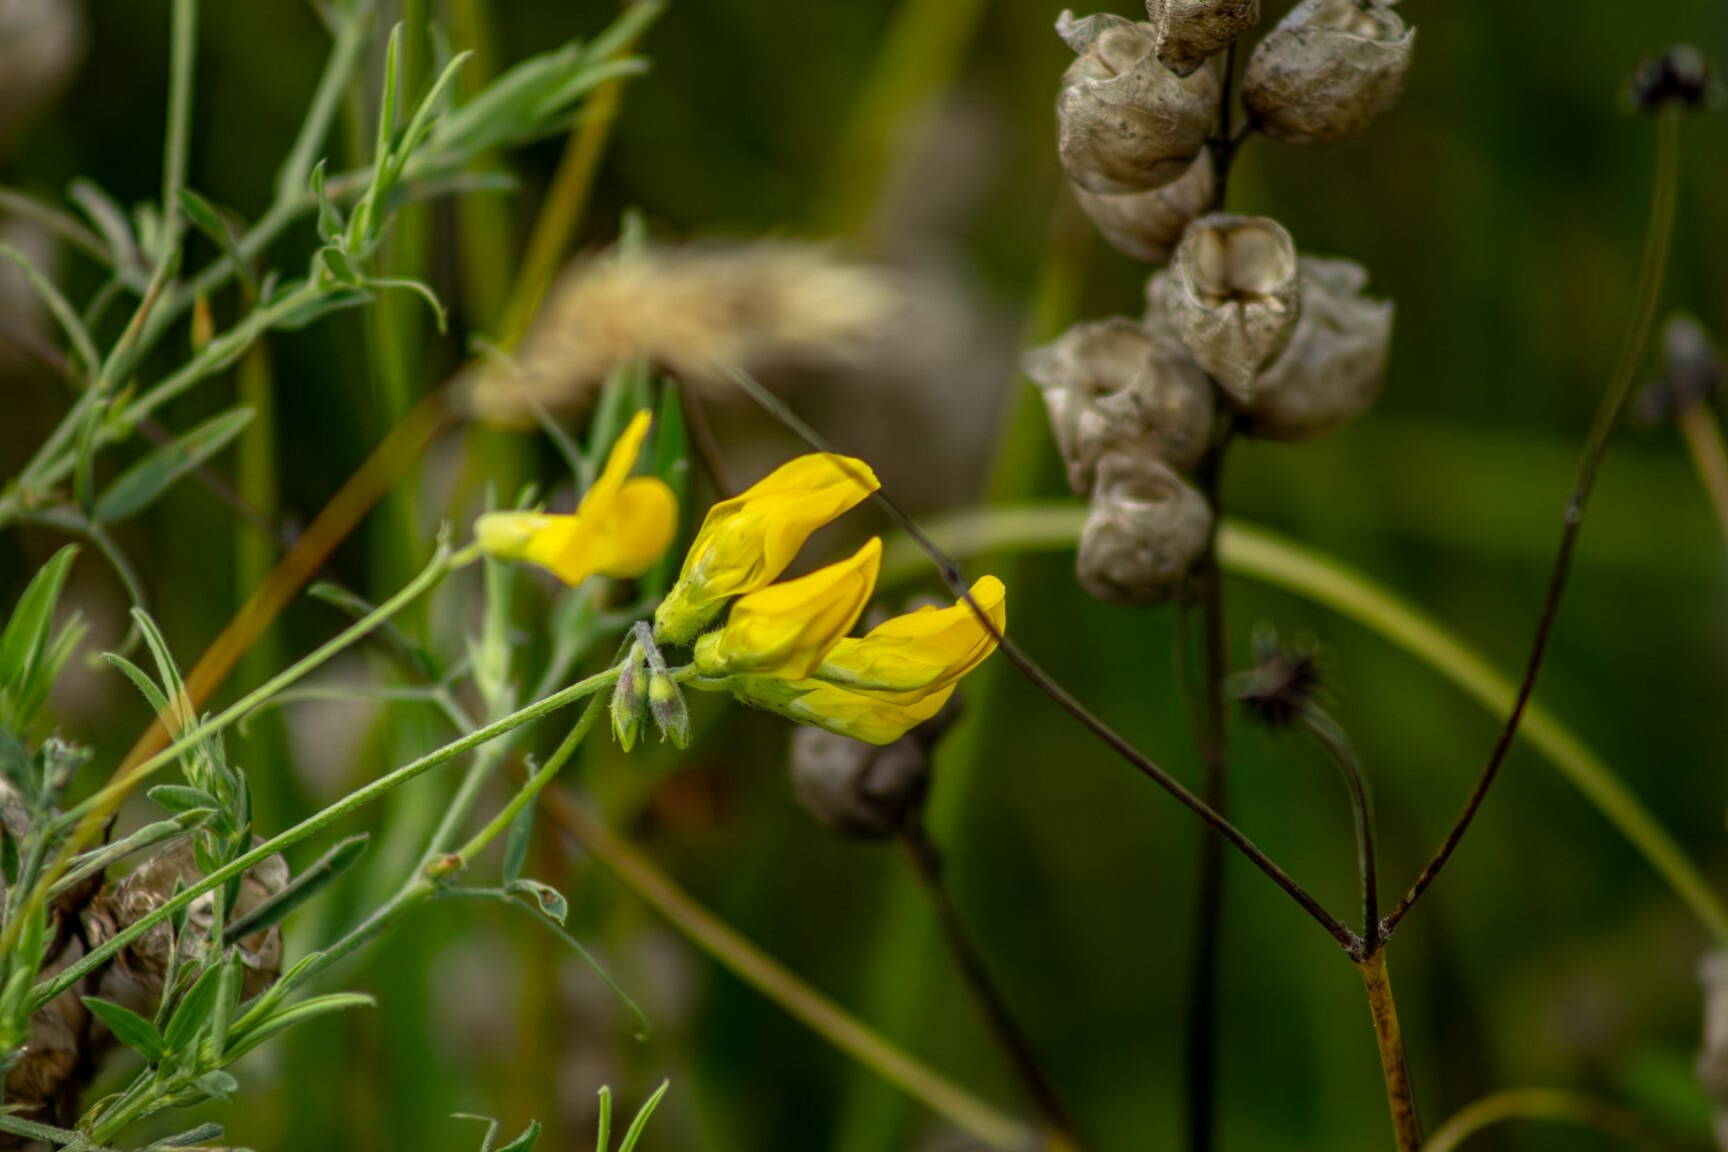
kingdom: Plantae
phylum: Tracheophyta
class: Magnoliopsida
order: Fabales
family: Fabaceae
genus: Lathyrus
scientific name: Lathyrus pratensis
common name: Meadow vetchling
